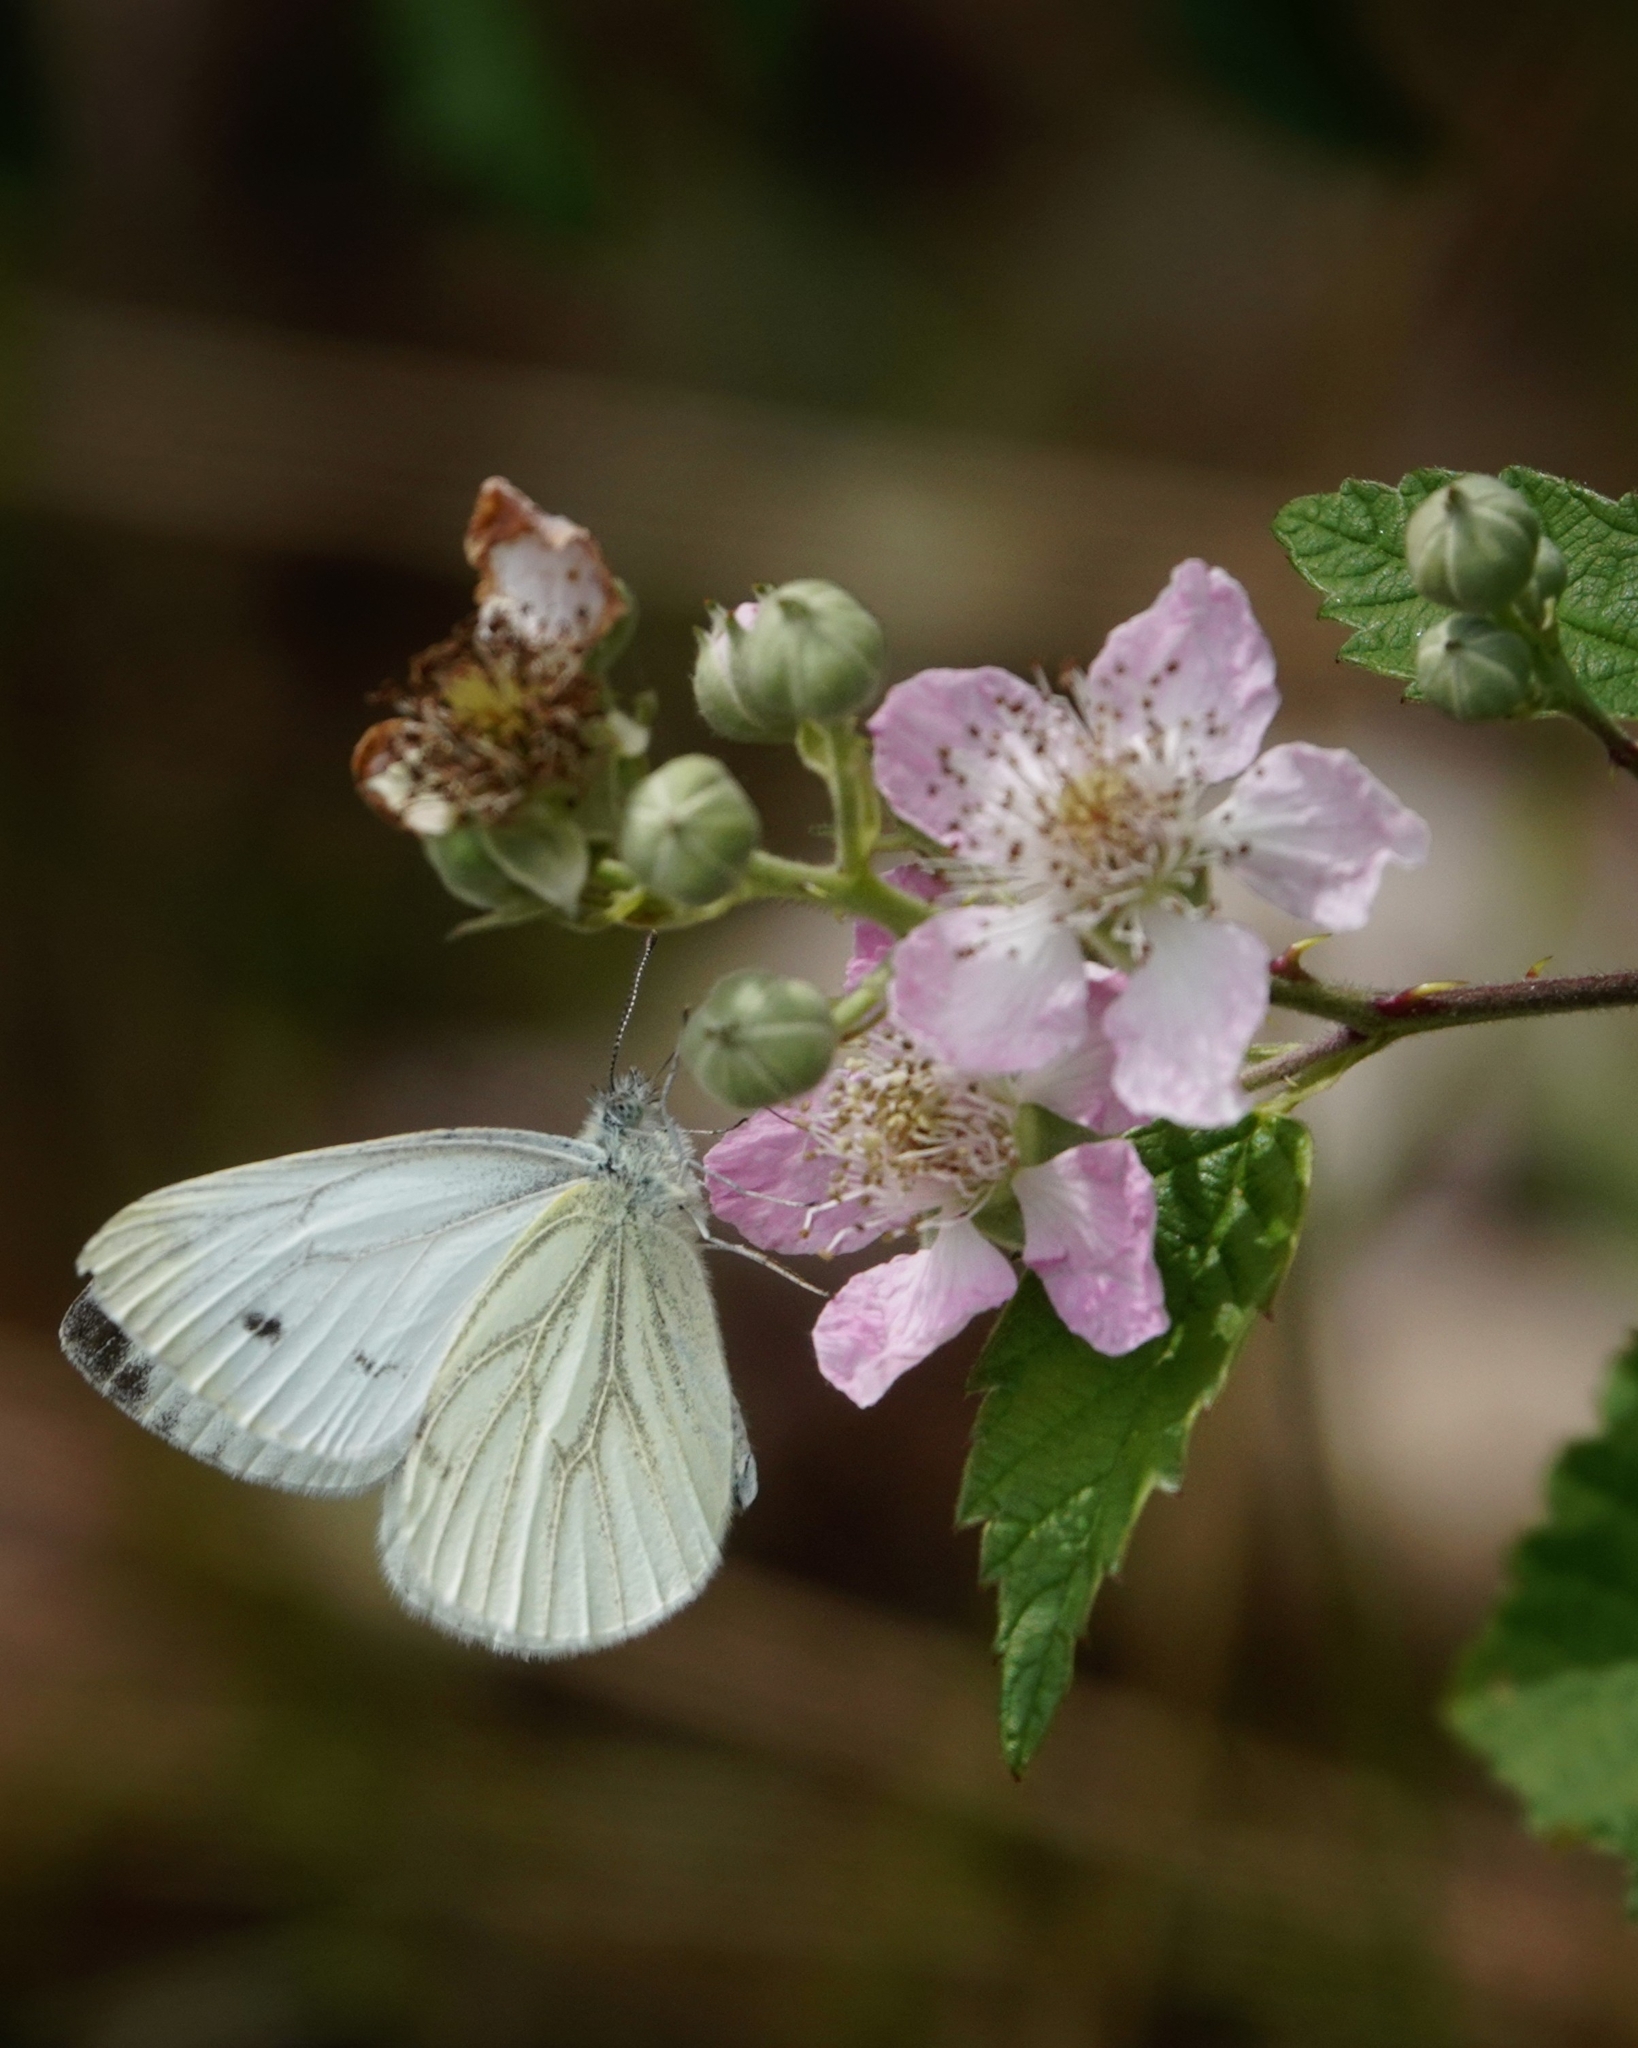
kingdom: Animalia
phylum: Arthropoda
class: Insecta
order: Lepidoptera
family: Pieridae
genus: Pieris
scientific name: Pieris napi
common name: Green-veined white
